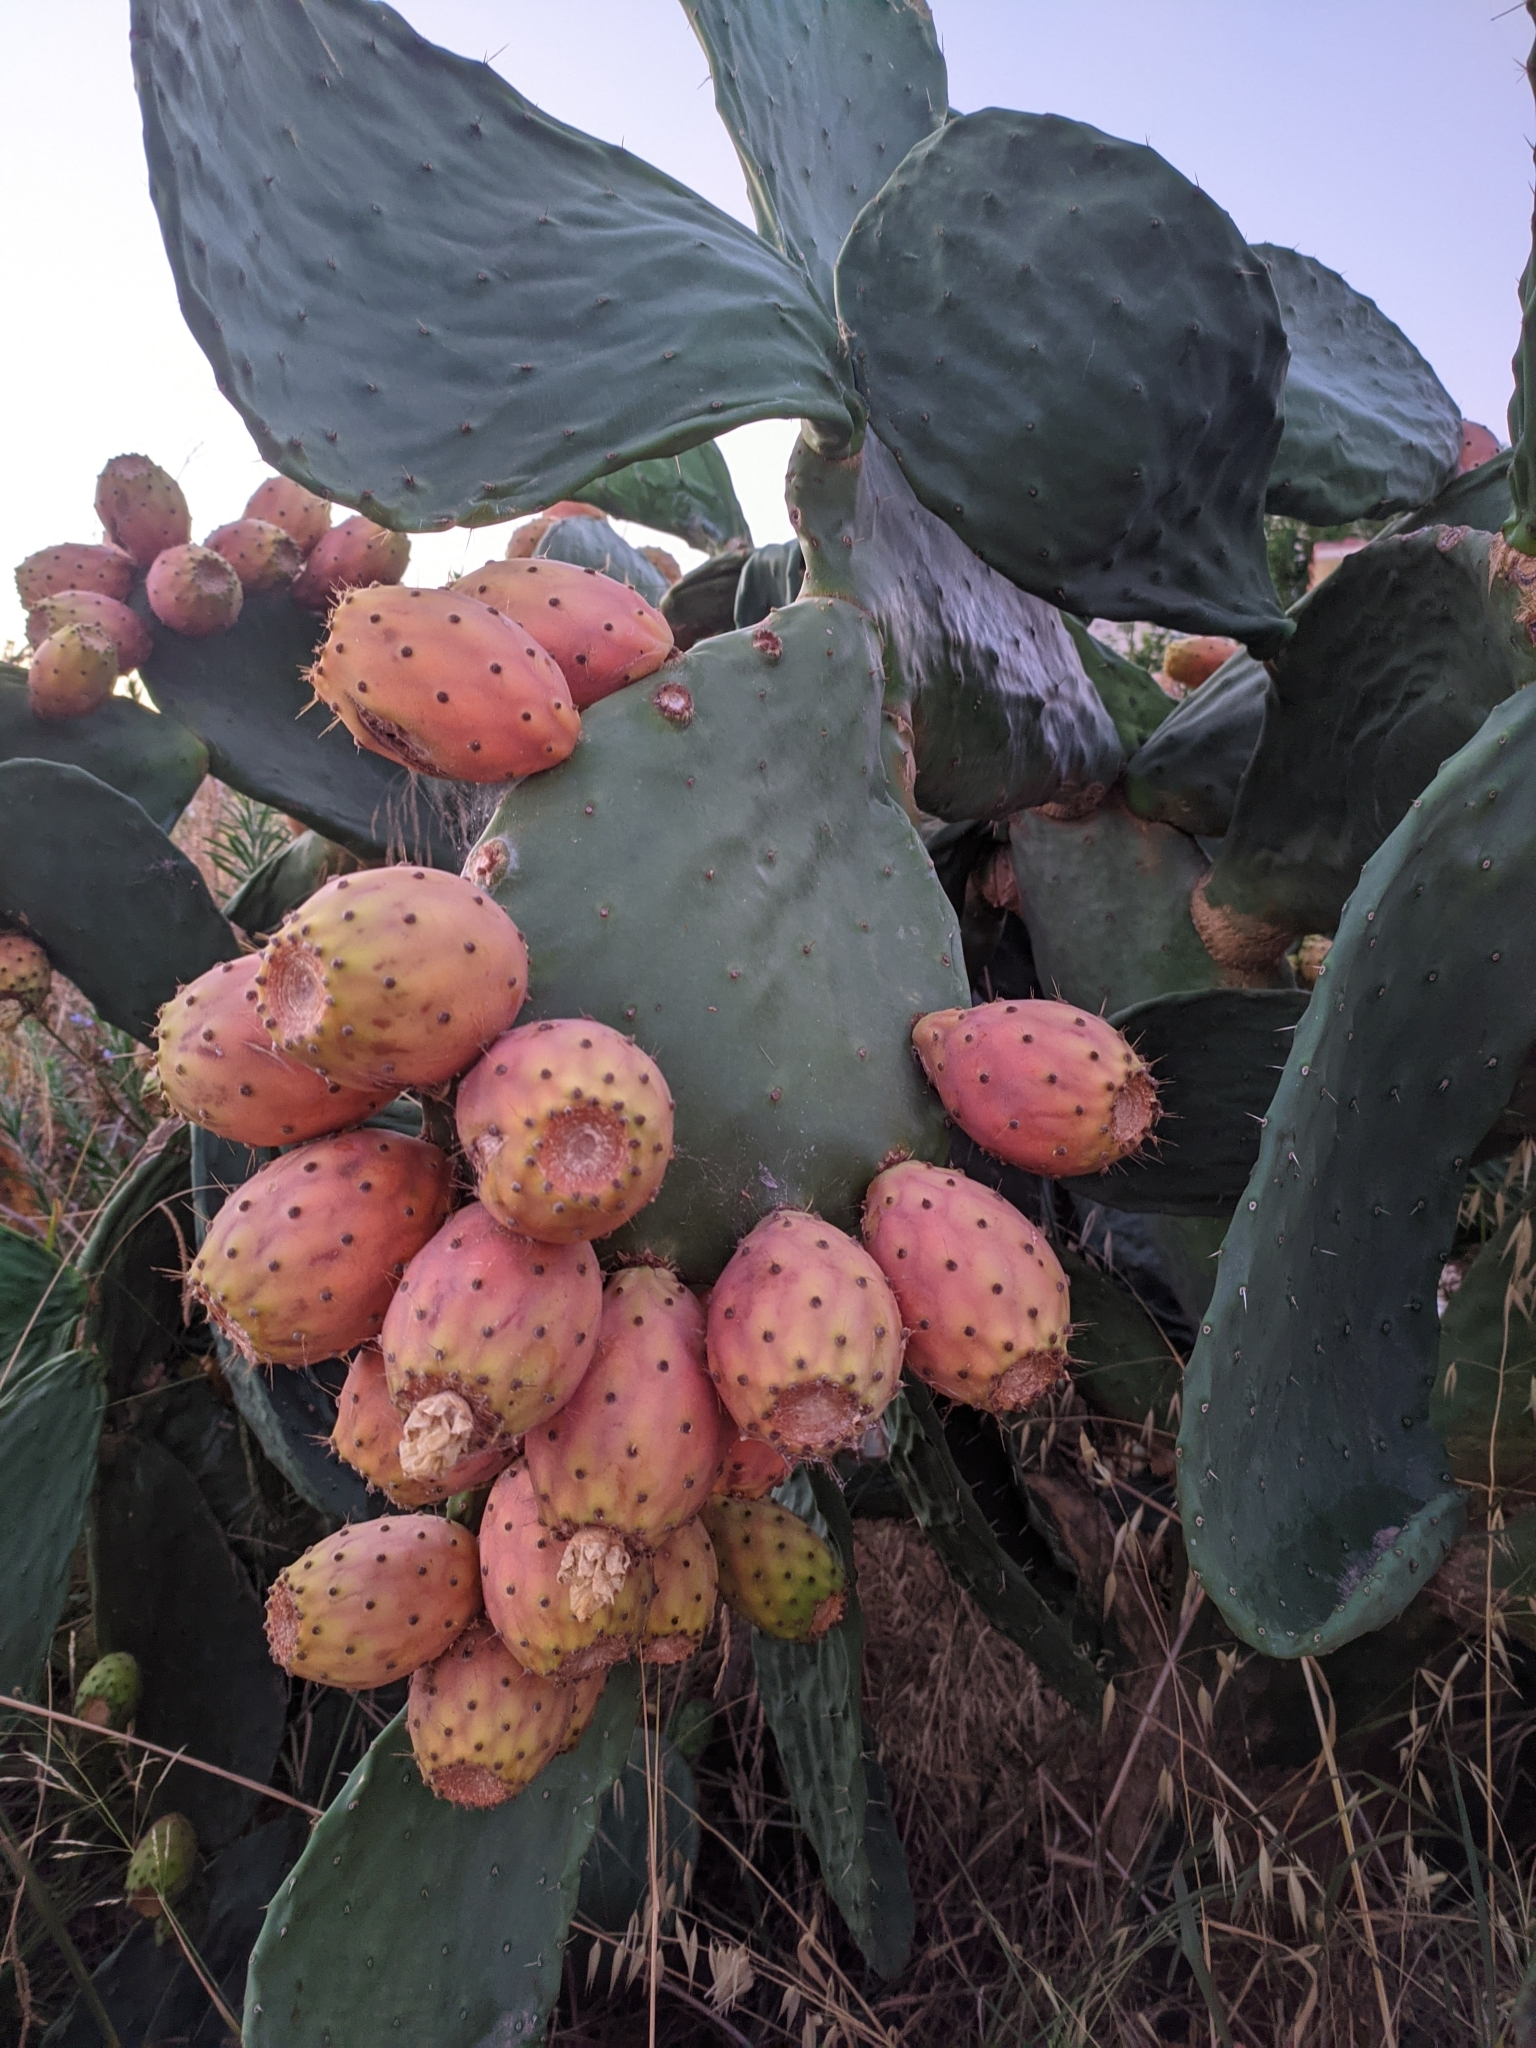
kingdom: Plantae
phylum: Tracheophyta
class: Magnoliopsida
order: Caryophyllales
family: Cactaceae
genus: Opuntia
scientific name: Opuntia ficus-indica
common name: Barbary fig
